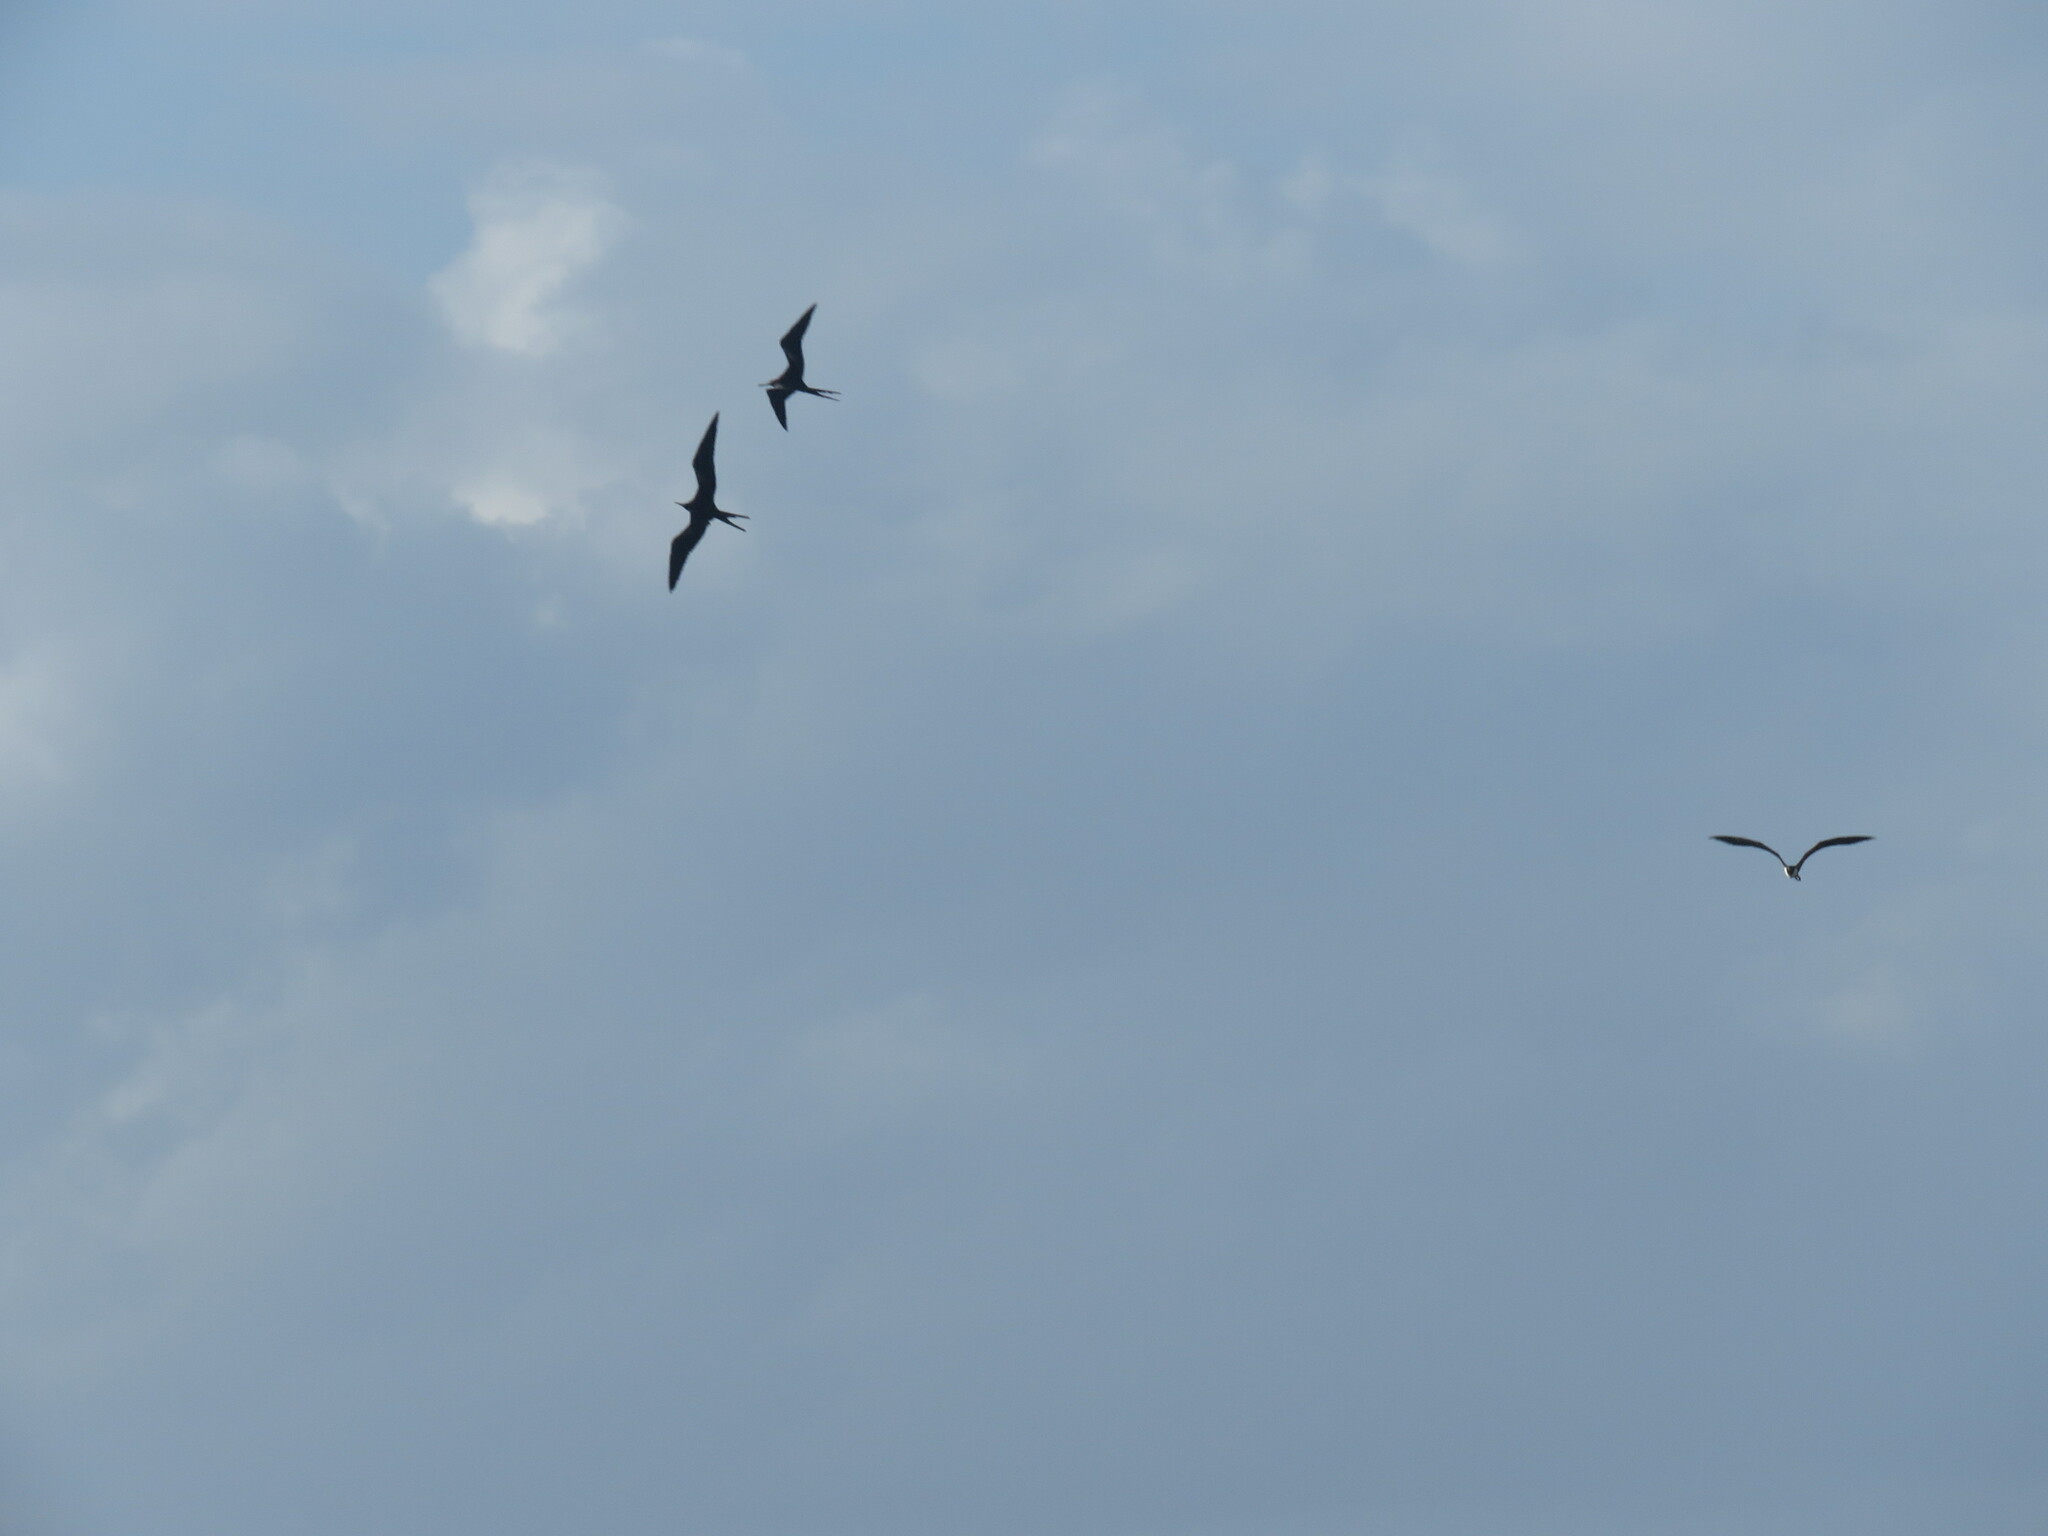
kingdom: Animalia
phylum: Chordata
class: Aves
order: Suliformes
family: Fregatidae
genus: Fregata
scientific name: Fregata magnificens
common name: Magnificent frigatebird
